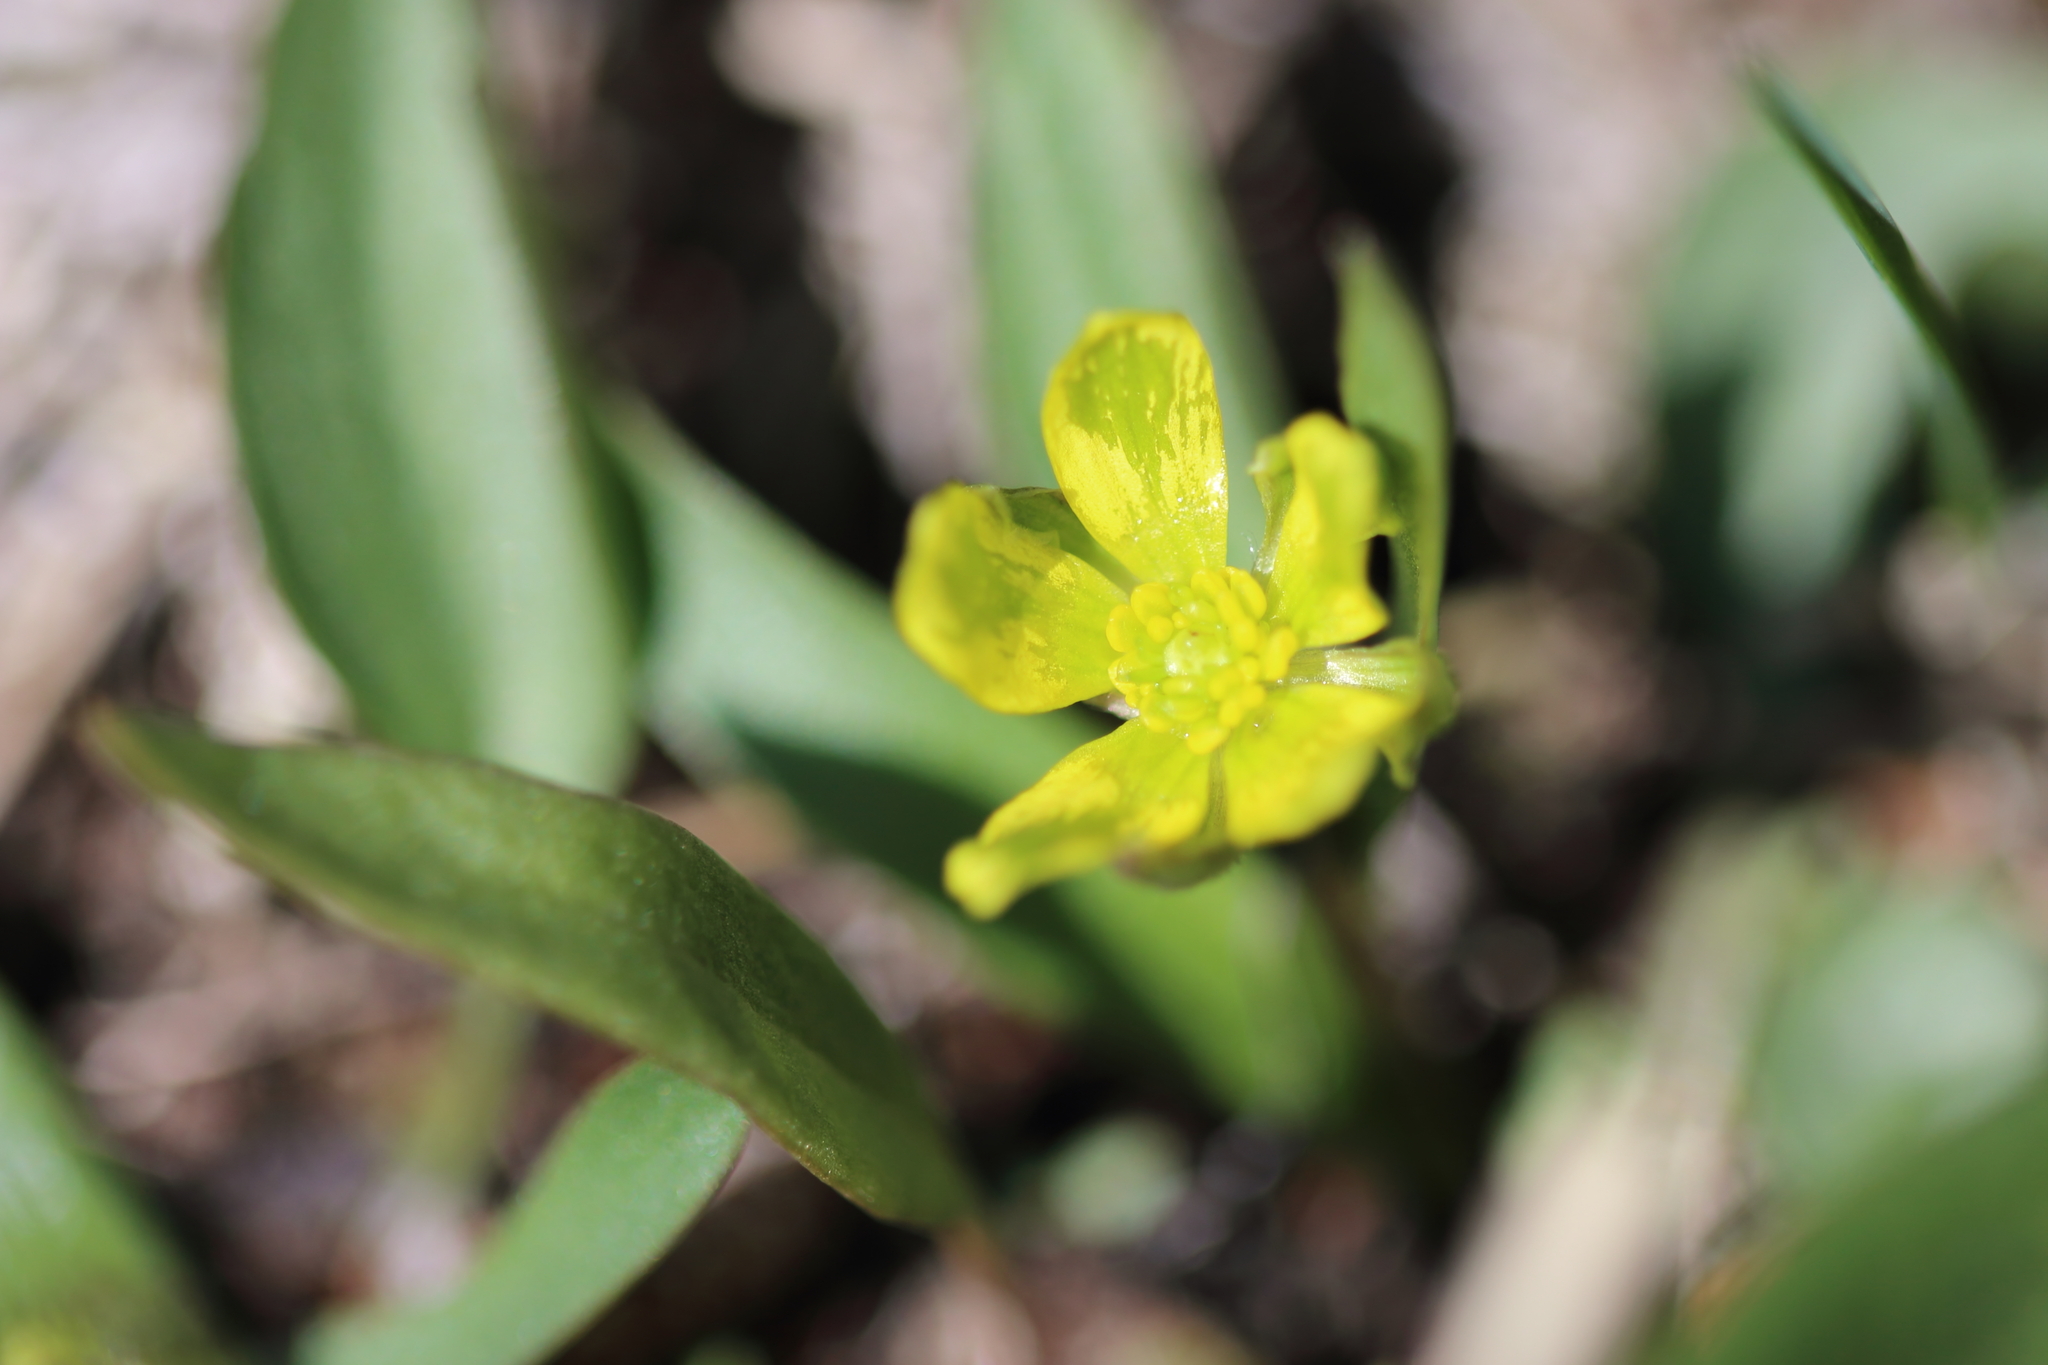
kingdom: Plantae
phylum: Tracheophyta
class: Magnoliopsida
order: Ranunculales
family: Ranunculaceae
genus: Ranunculus
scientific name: Ranunculus glaberrimus
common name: Sagebrush buttercup
